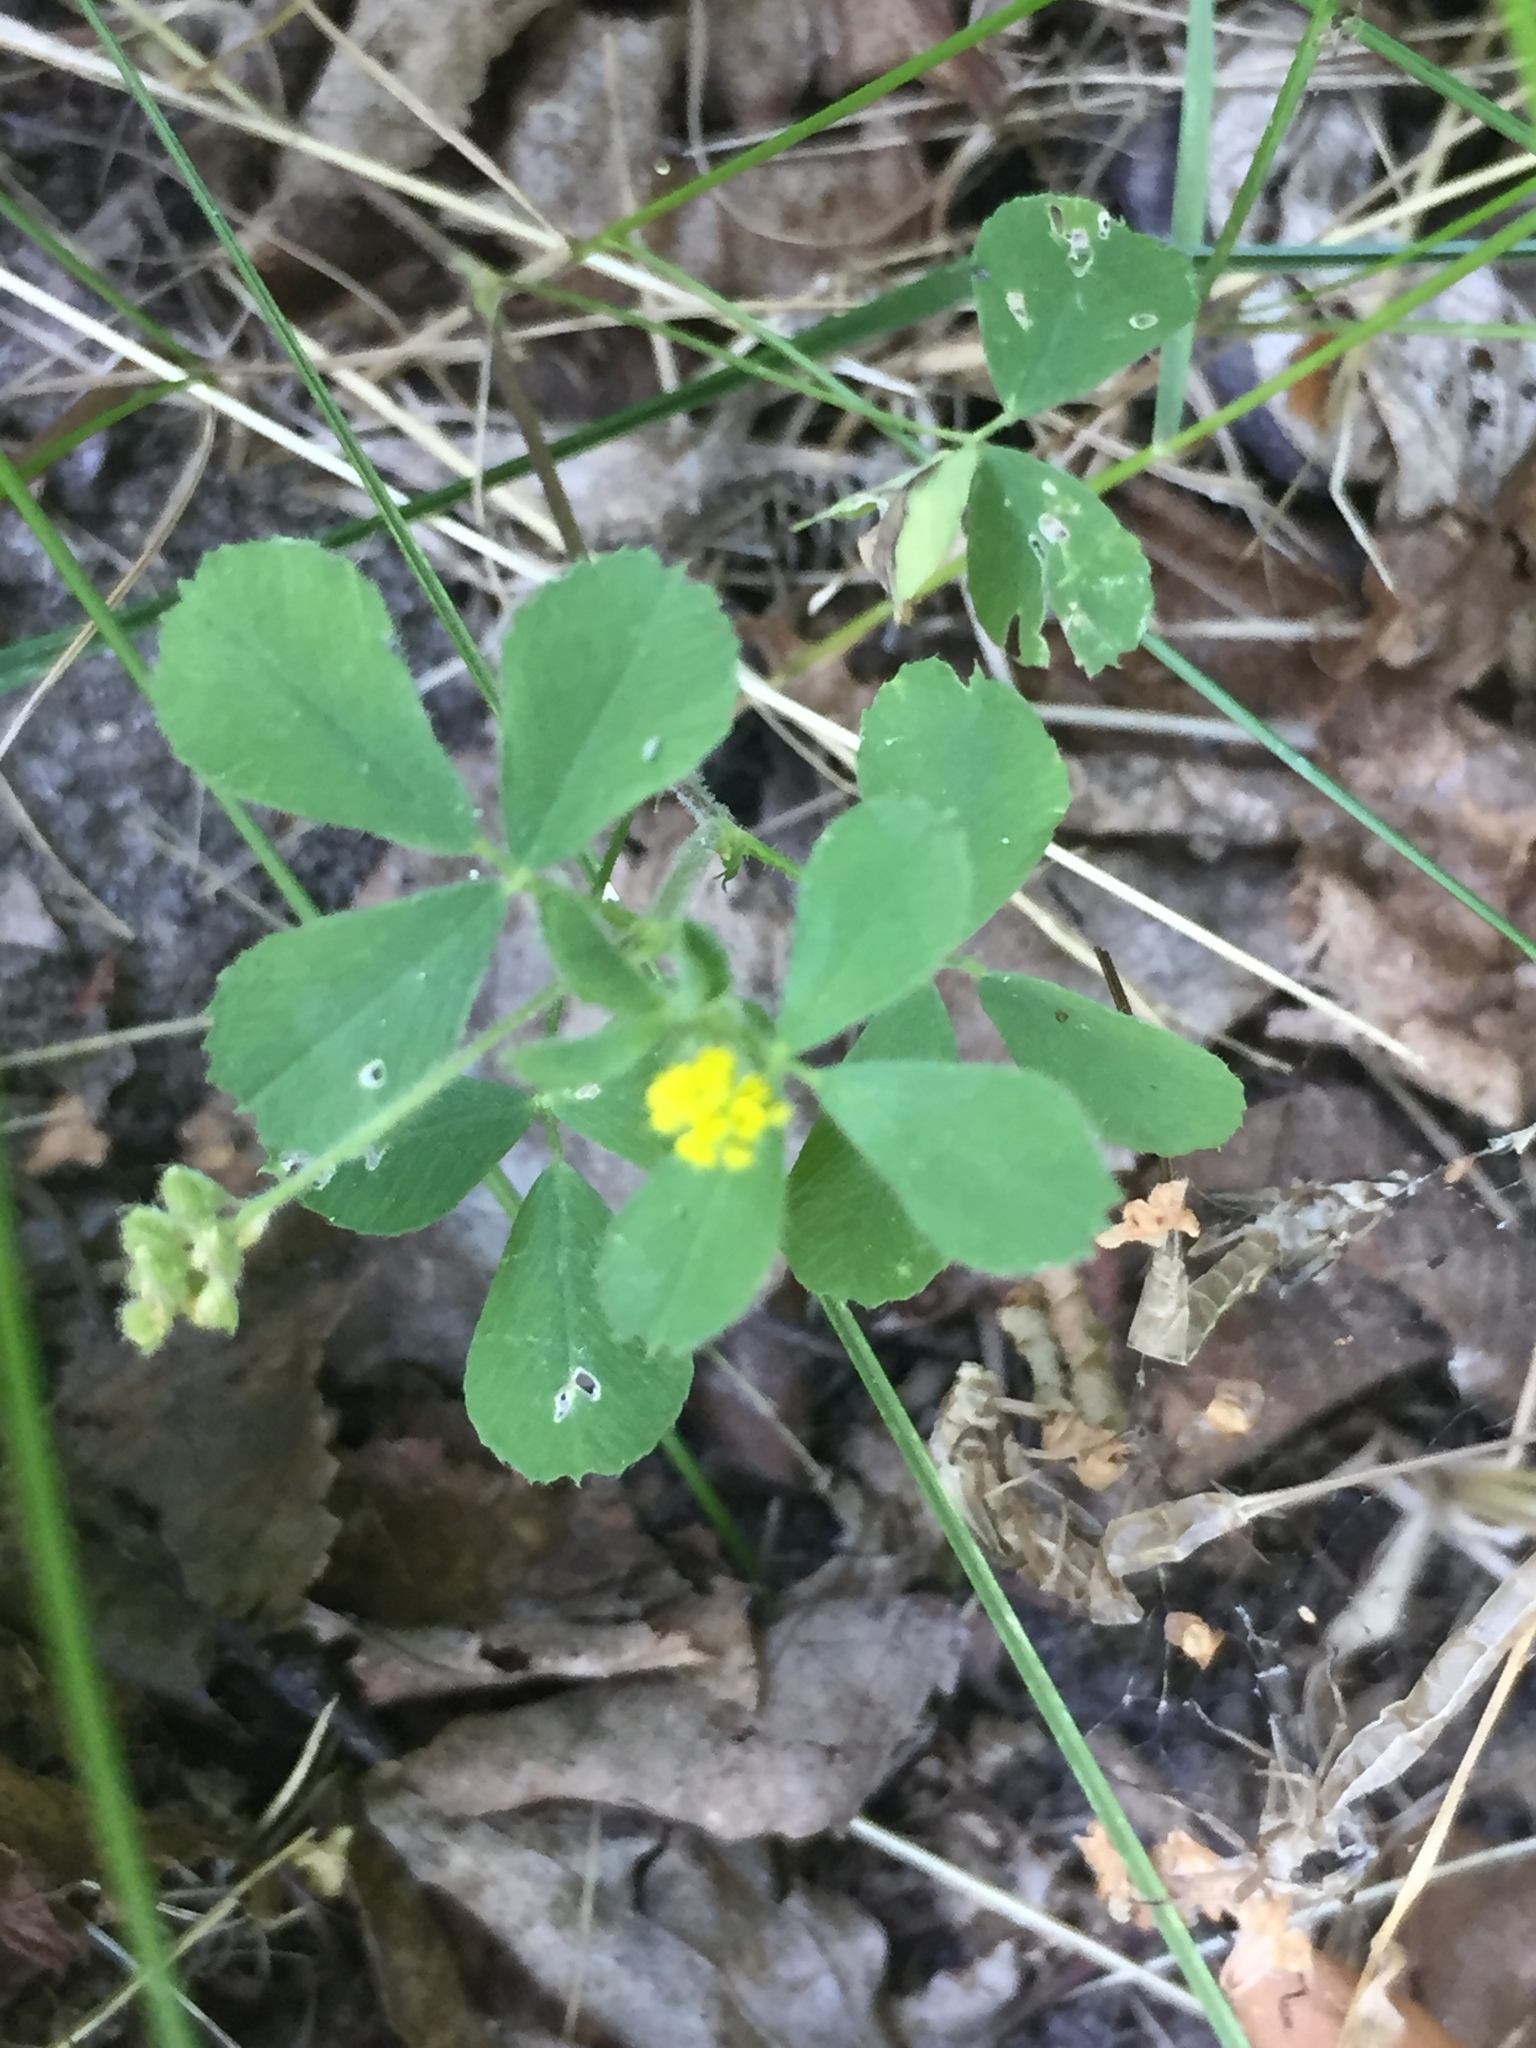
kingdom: Plantae
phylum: Tracheophyta
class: Magnoliopsida
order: Fabales
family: Fabaceae
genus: Medicago
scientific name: Medicago lupulina
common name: Black medick
